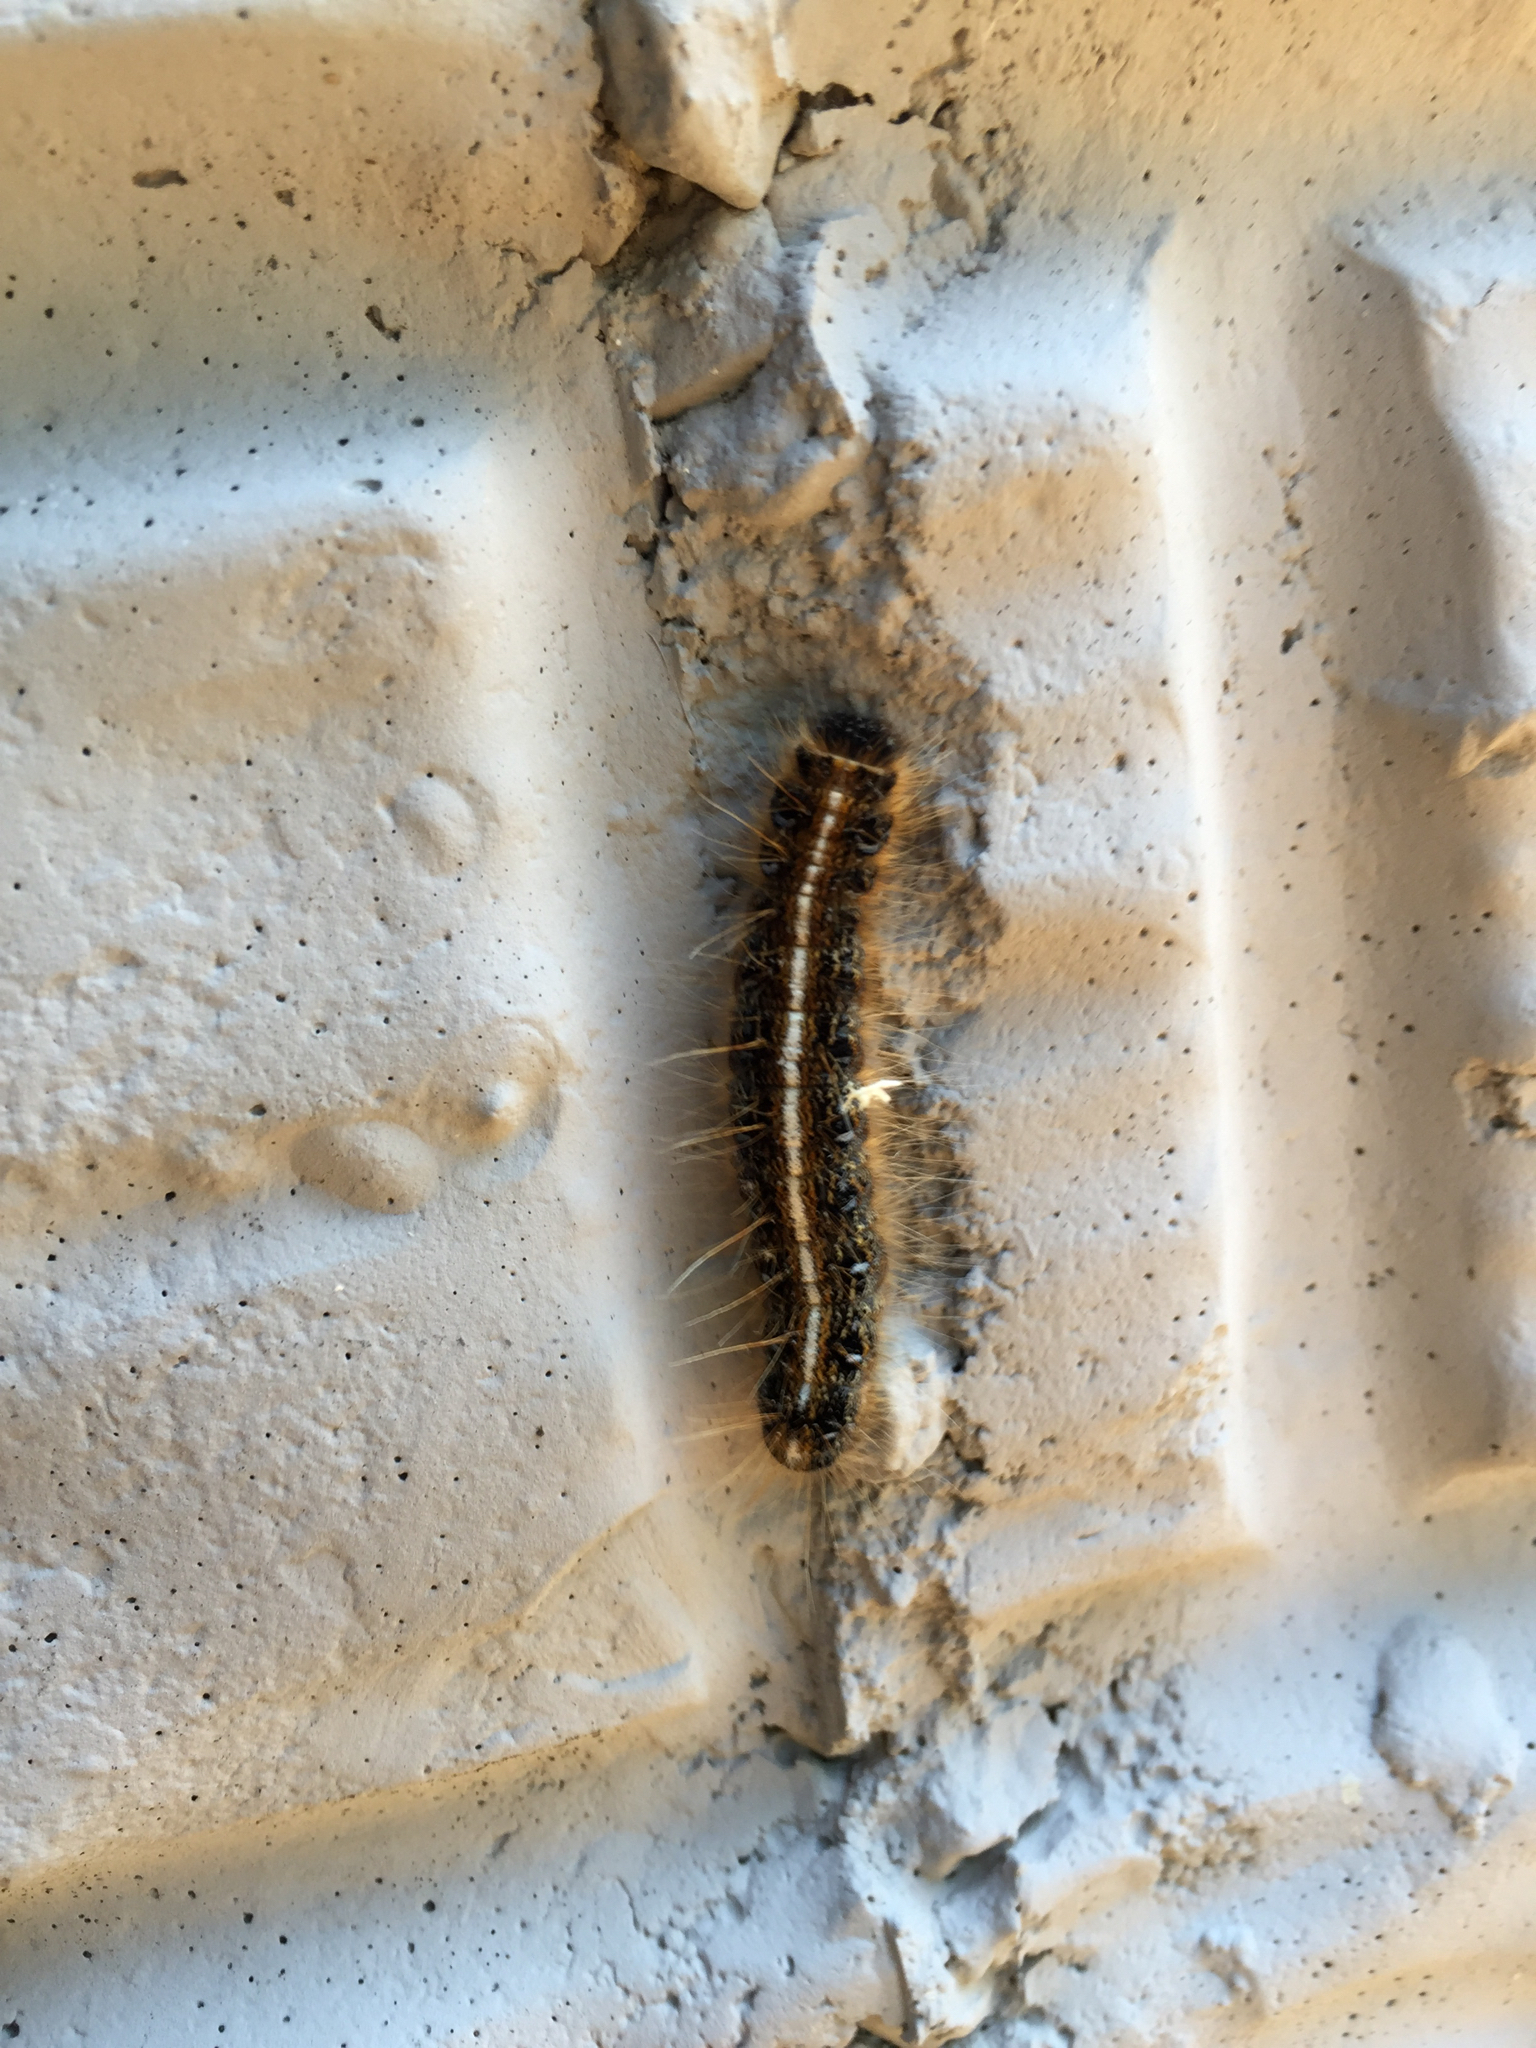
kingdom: Animalia
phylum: Arthropoda
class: Insecta
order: Lepidoptera
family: Lasiocampidae
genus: Malacosoma
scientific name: Malacosoma americana
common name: Eastern tent caterpillar moth
